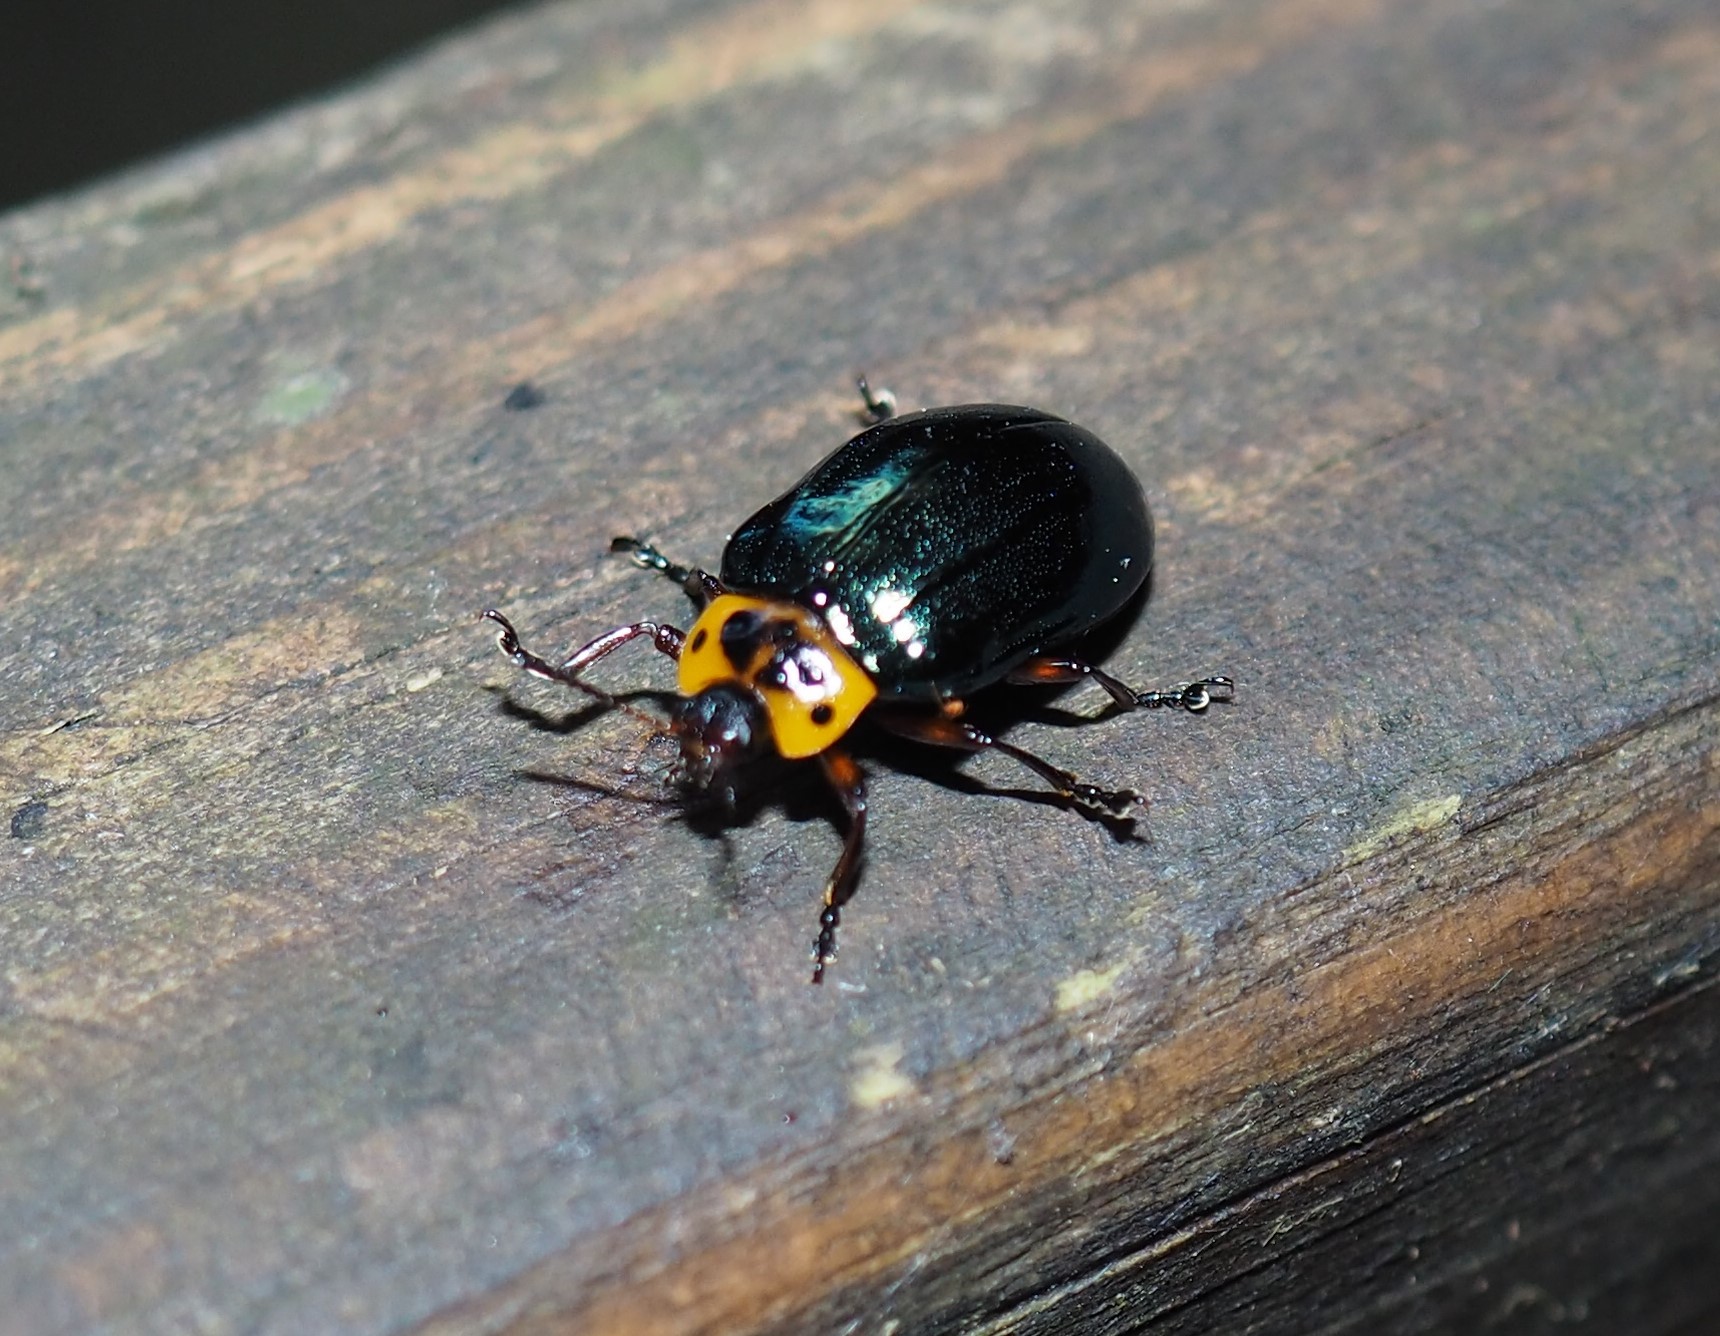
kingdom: Animalia
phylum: Arthropoda
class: Insecta
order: Coleoptera
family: Chrysomelidae
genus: Plagiosterna
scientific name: Plagiosterna maculicollis
